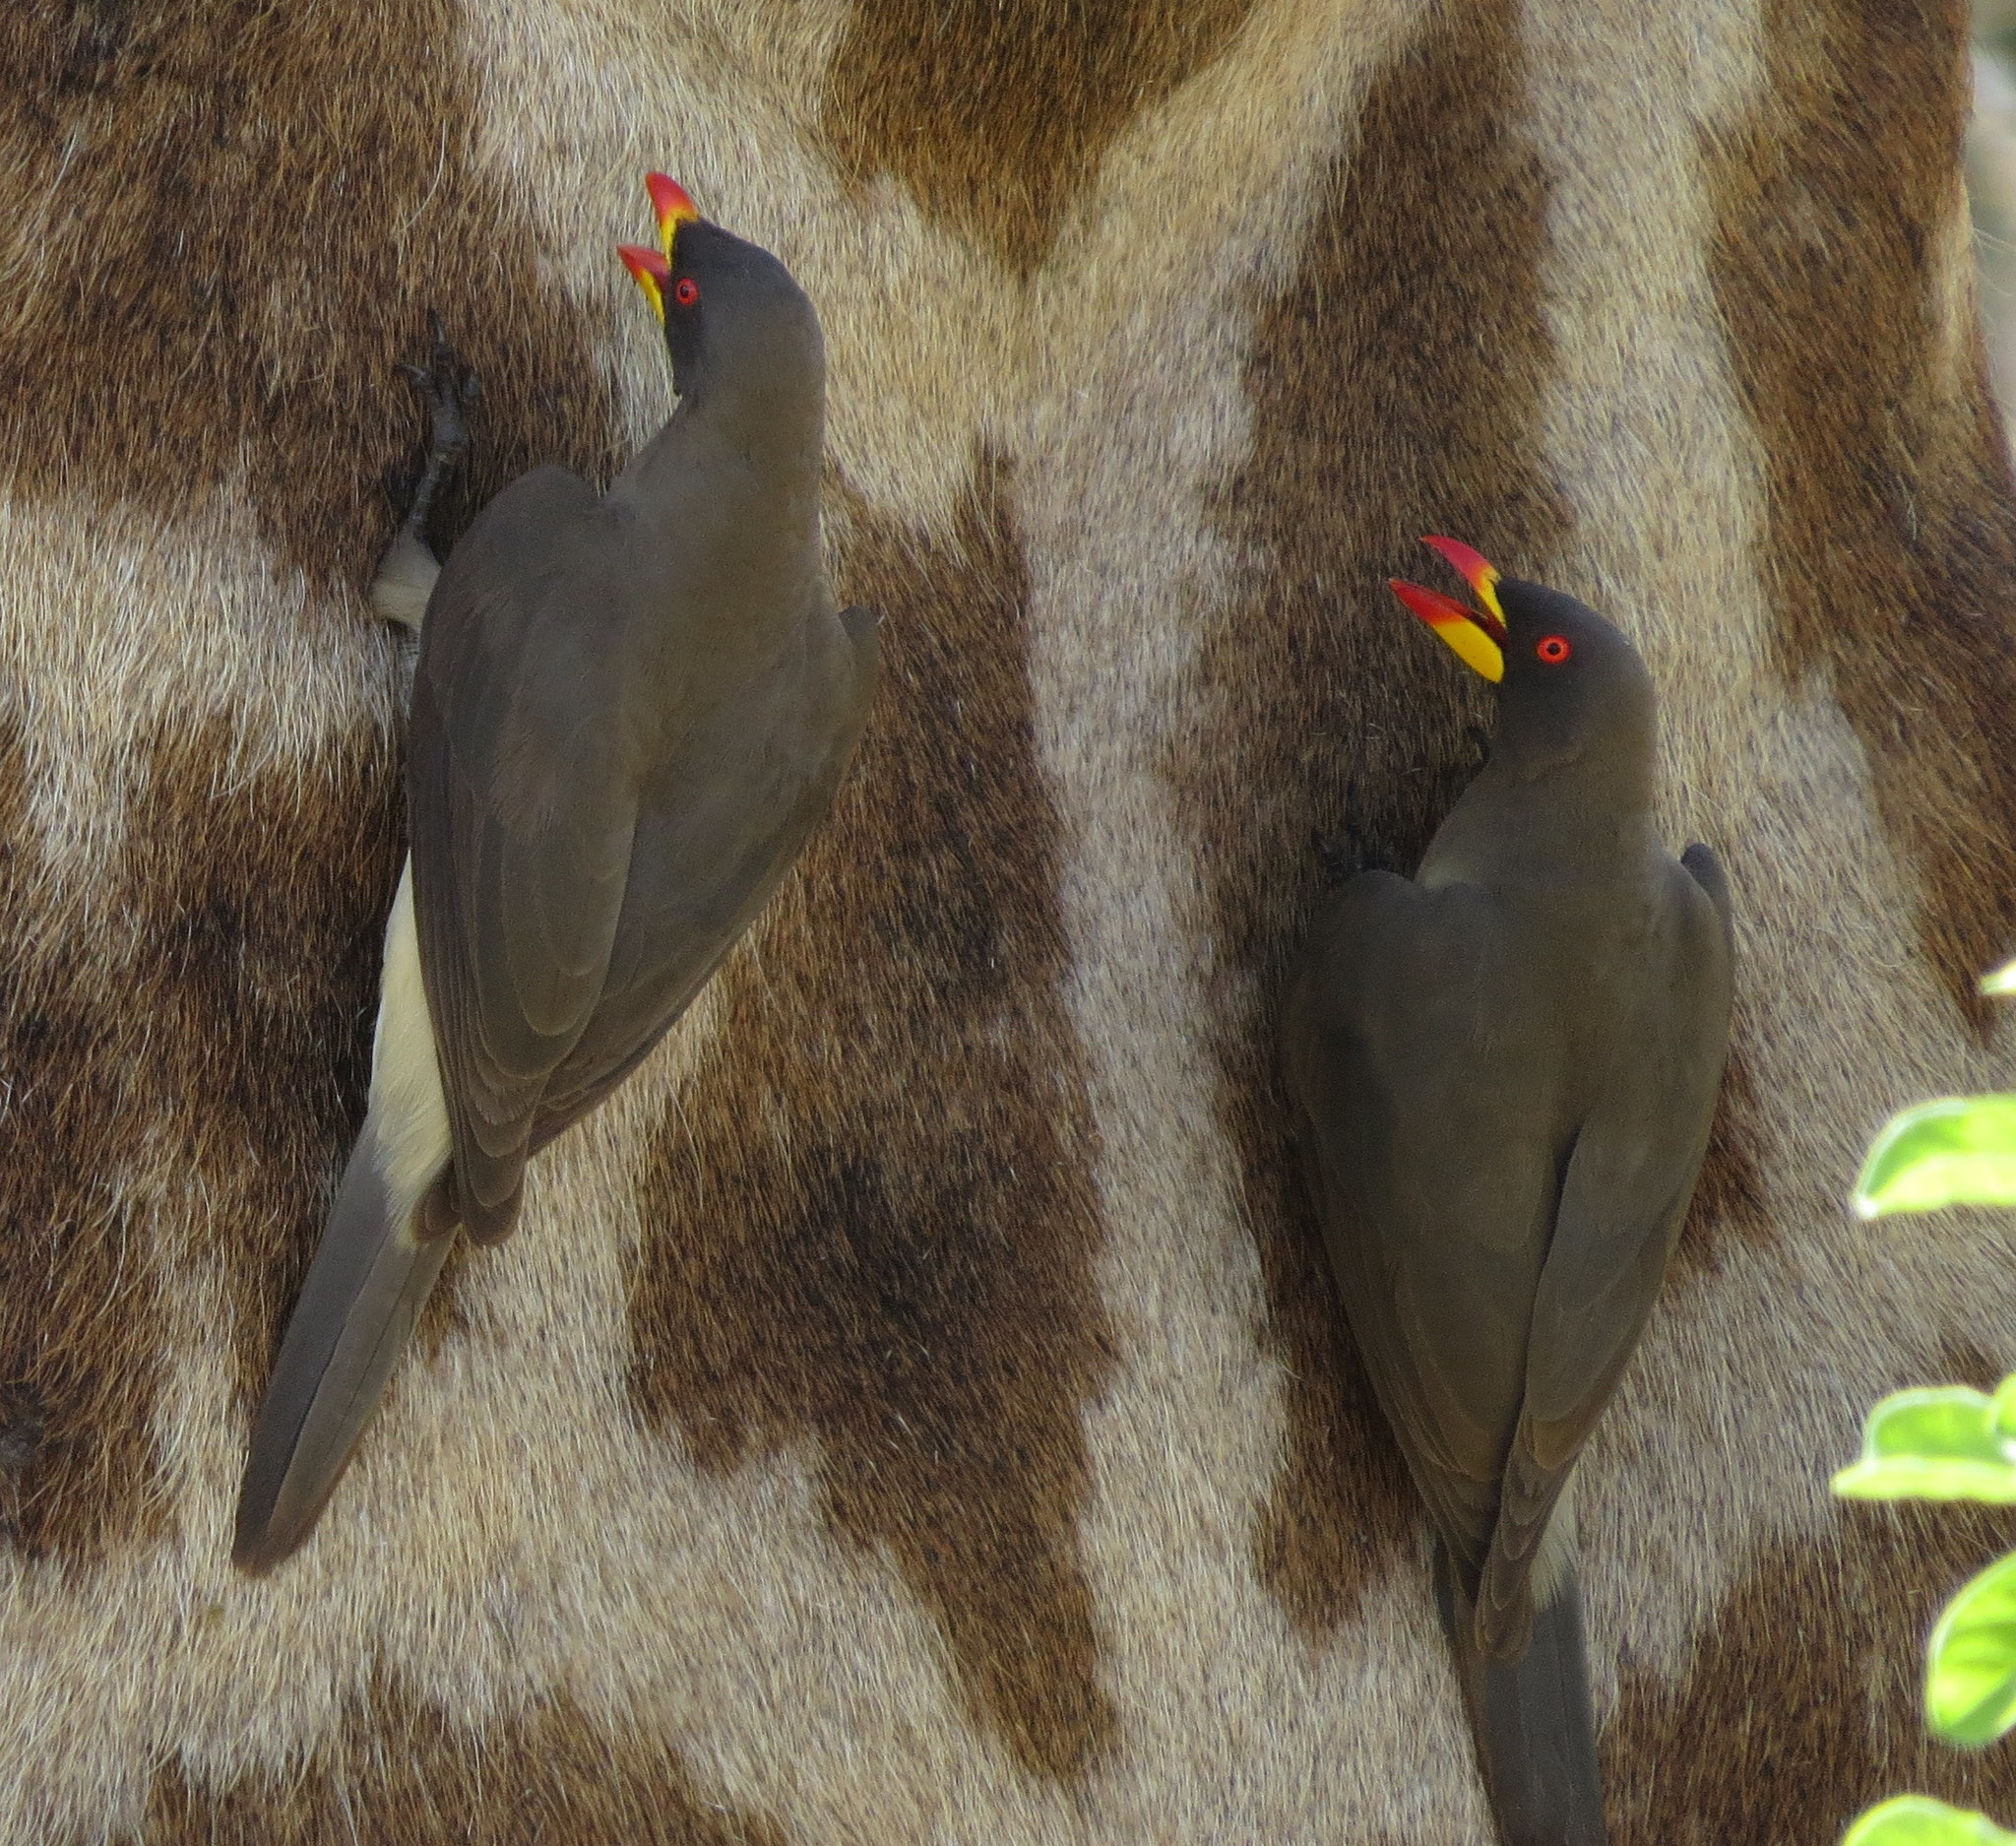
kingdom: Animalia
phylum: Chordata
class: Aves
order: Passeriformes
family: Buphagidae
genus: Buphagus
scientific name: Buphagus africanus
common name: Yellow-billed oxpecker
